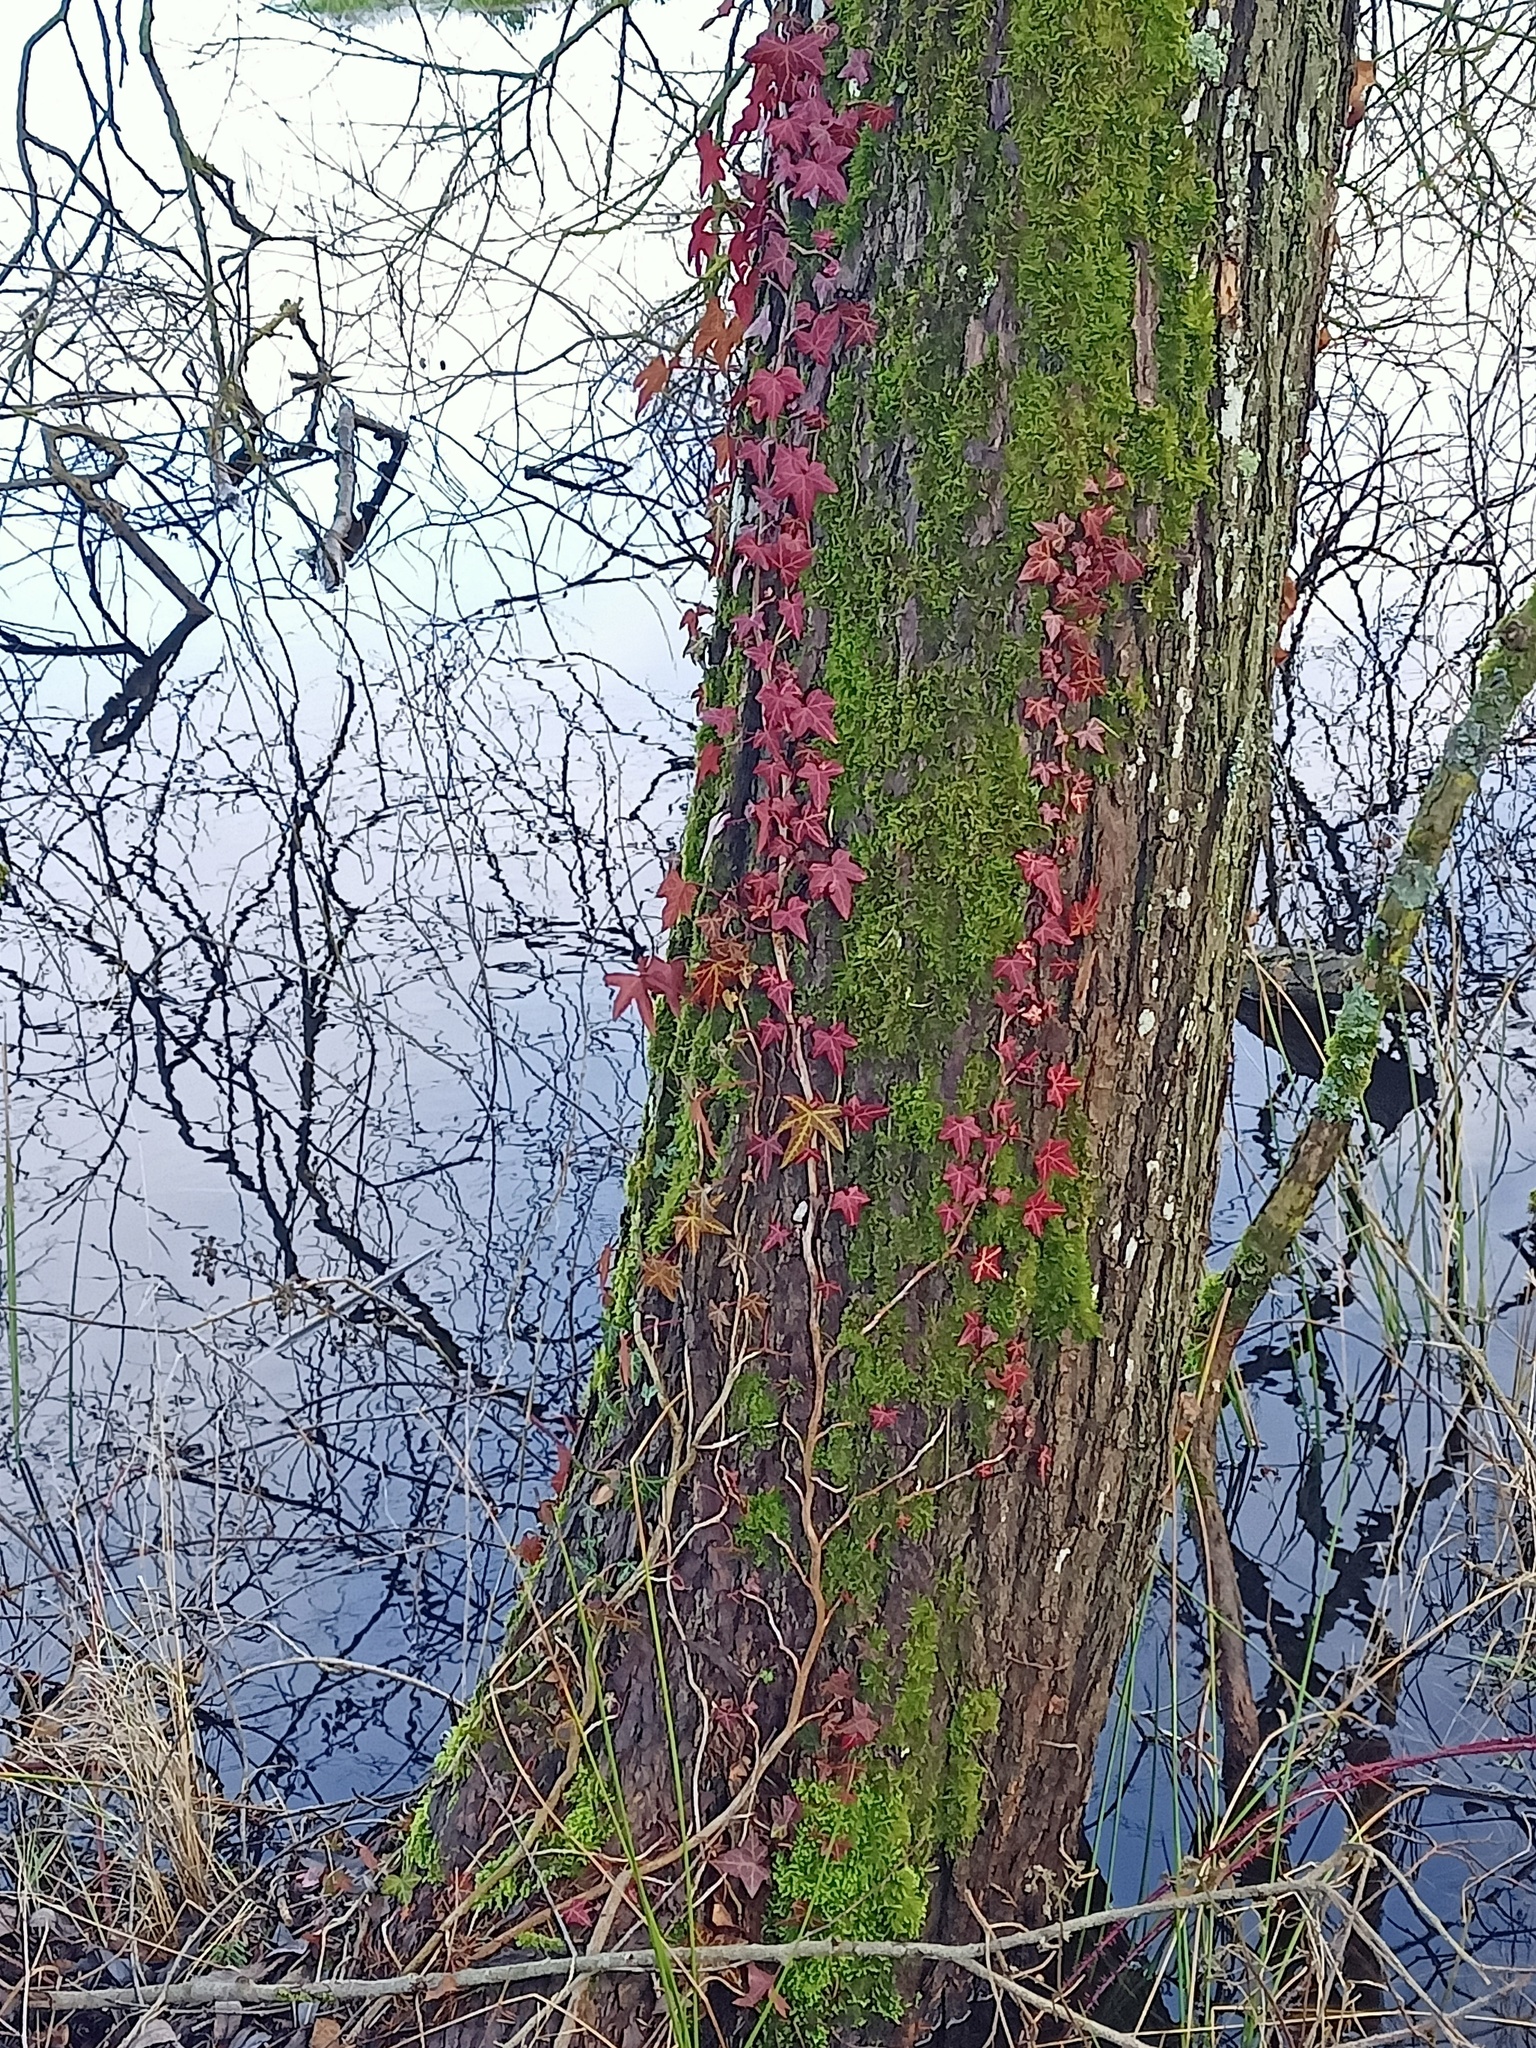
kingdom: Plantae
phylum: Tracheophyta
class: Magnoliopsida
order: Apiales
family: Araliaceae
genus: Hedera
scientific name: Hedera helix
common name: Ivy
